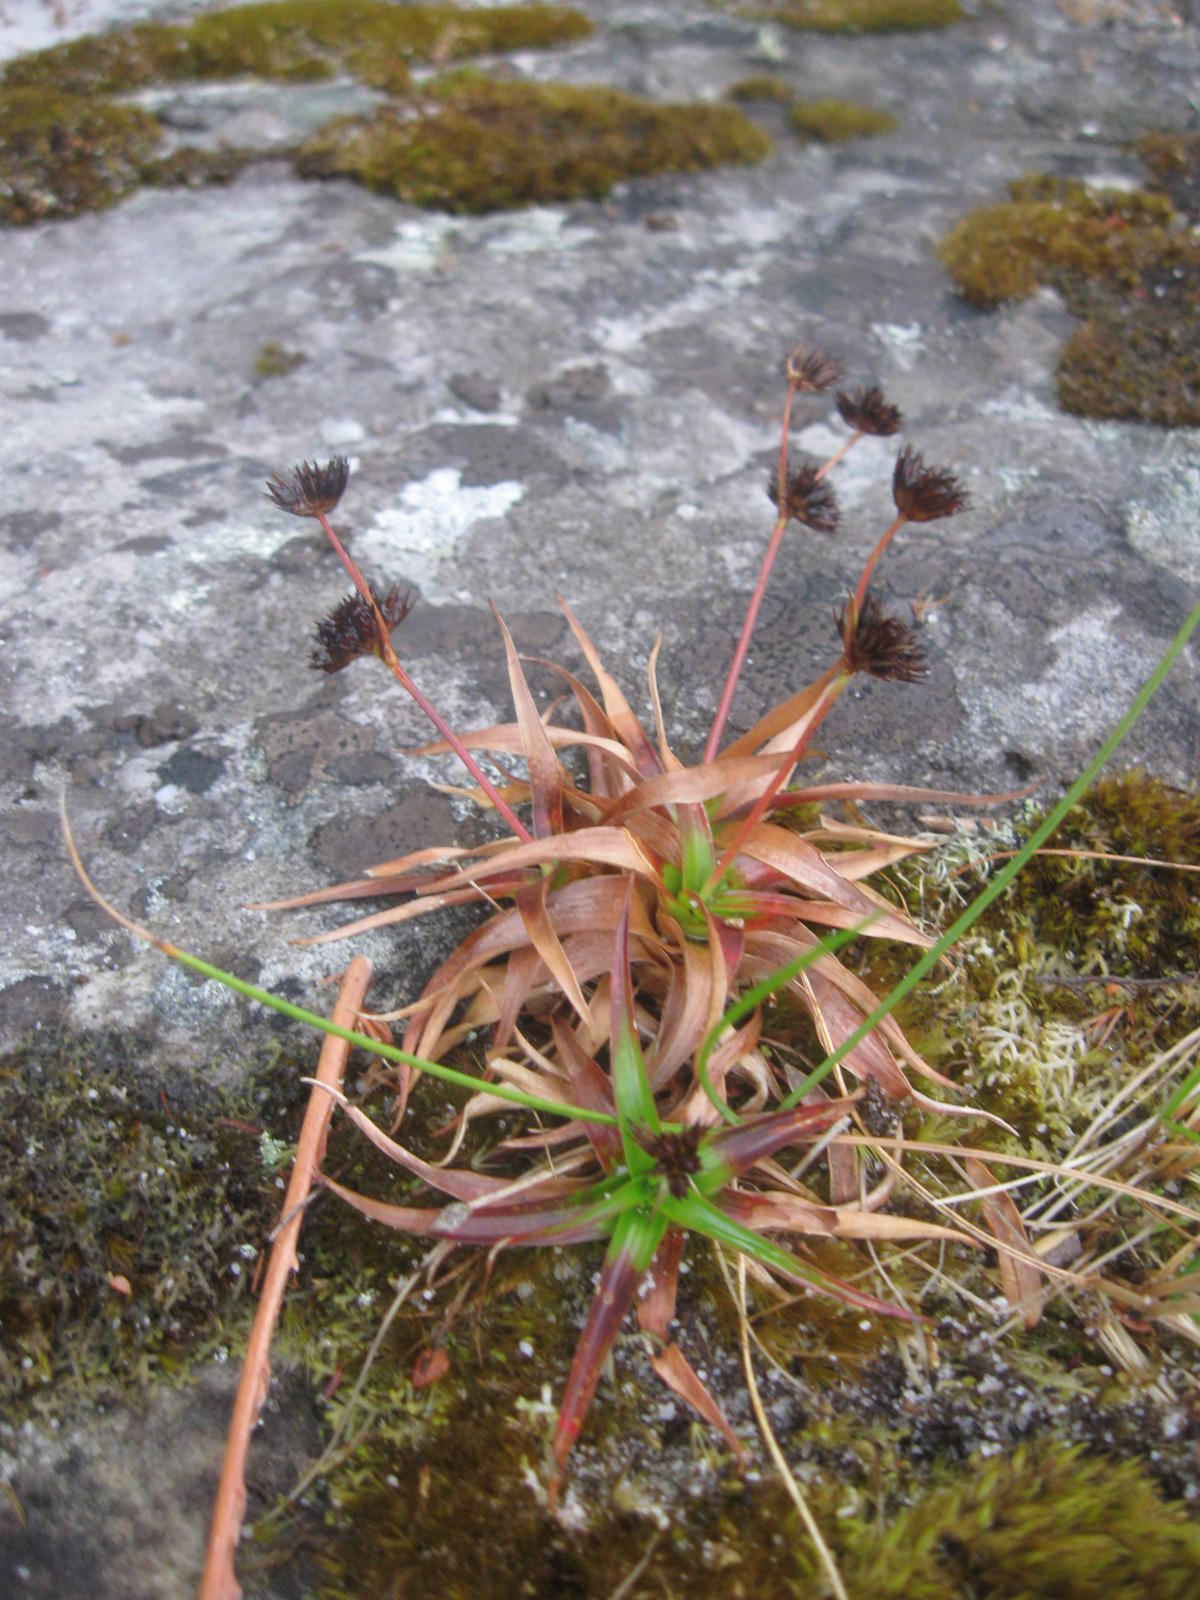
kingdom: Plantae
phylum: Tracheophyta
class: Liliopsida
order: Poales
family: Juncaceae
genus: Juncus
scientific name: Juncus cephalotes
